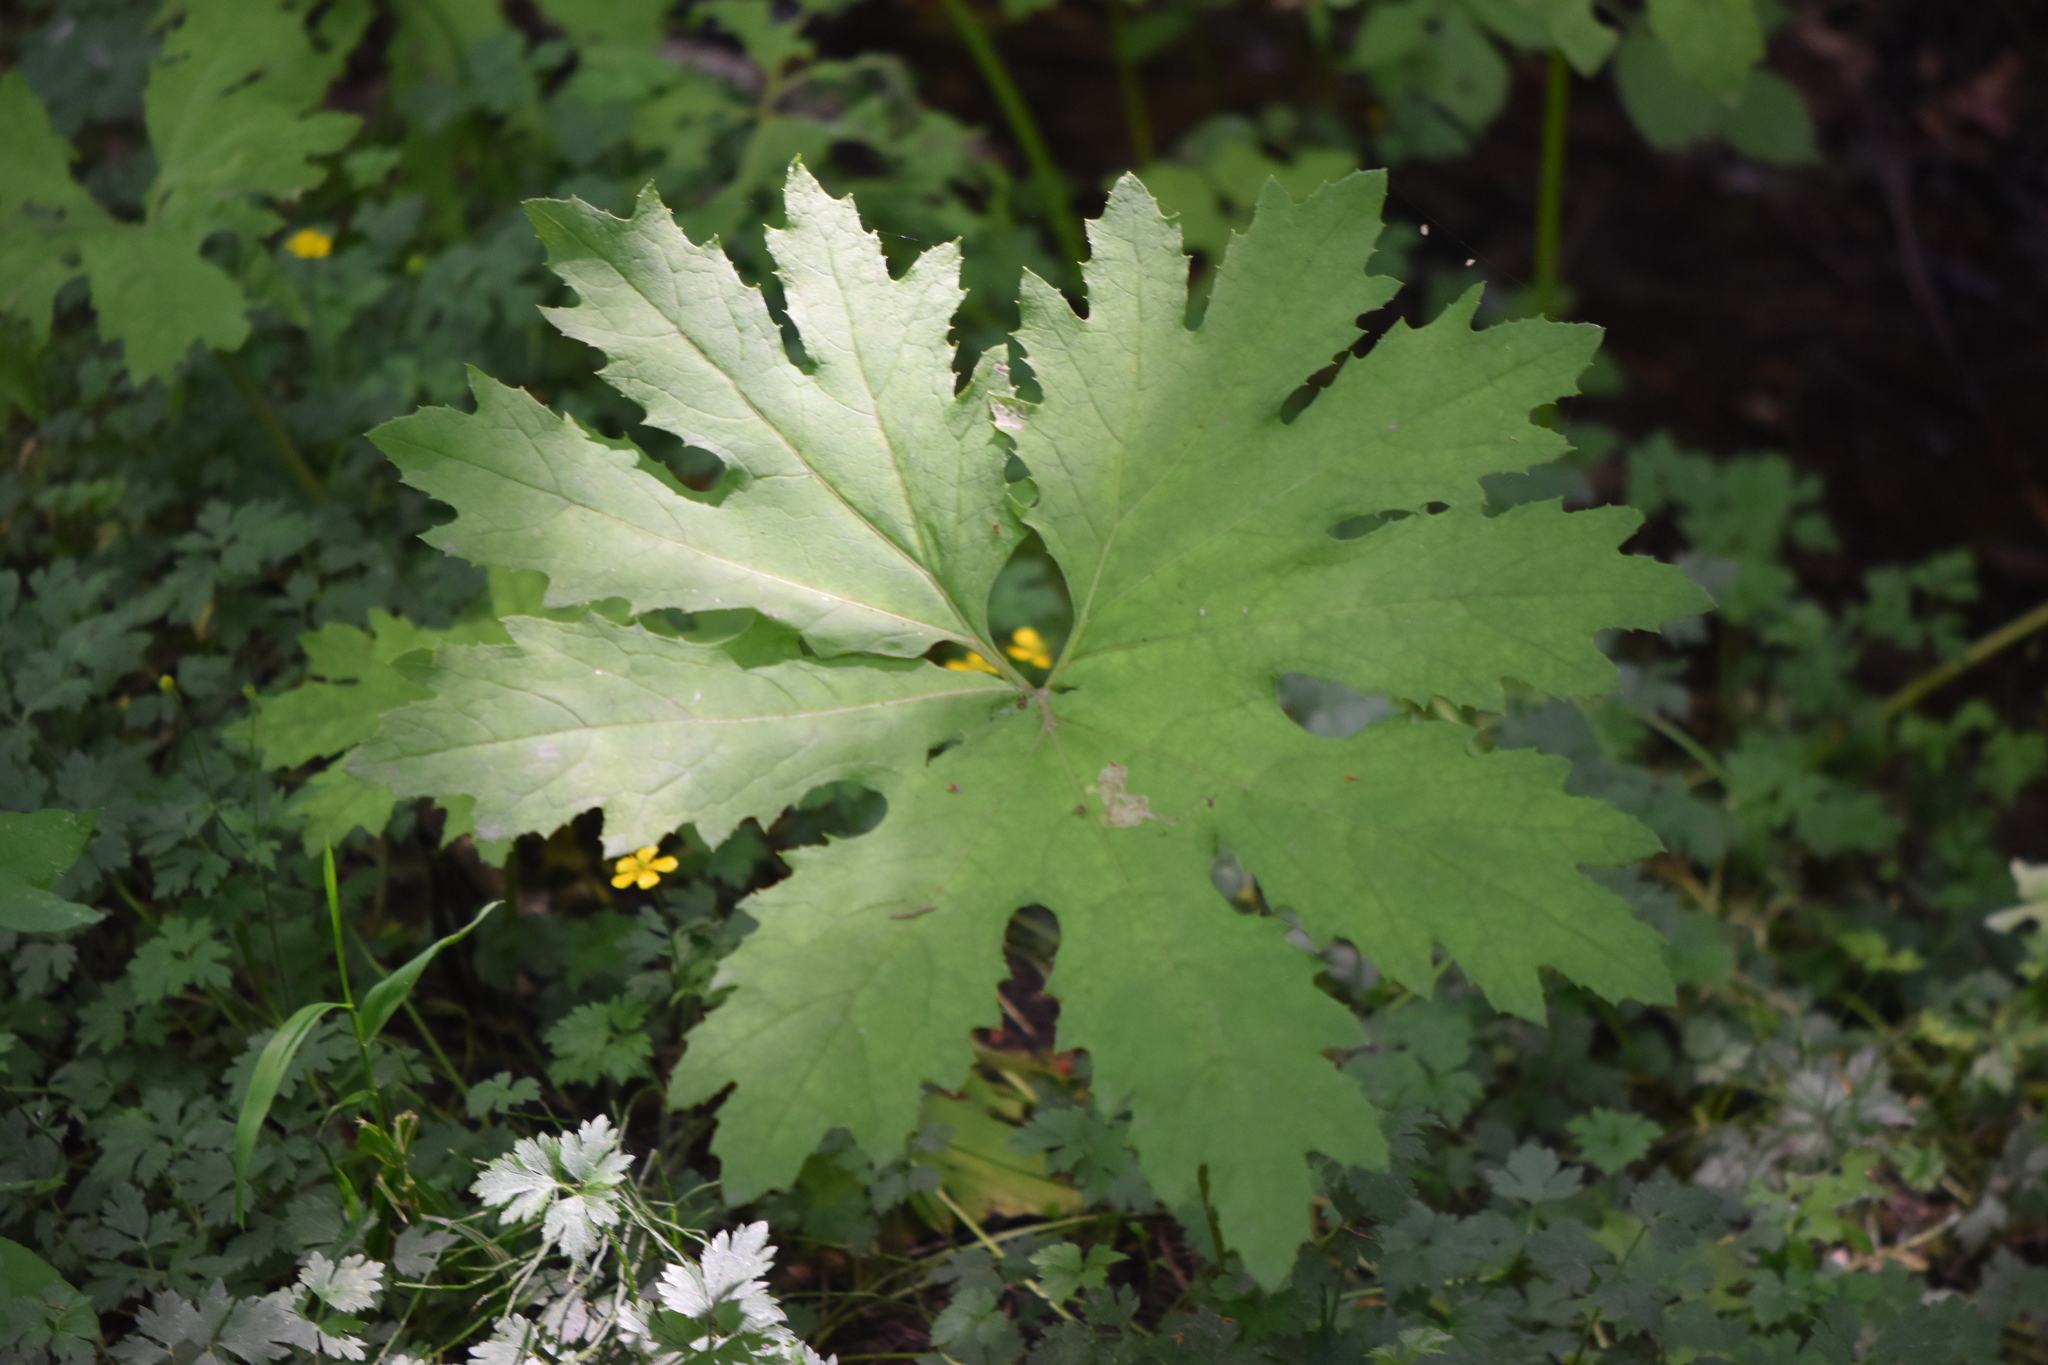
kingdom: Plantae
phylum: Tracheophyta
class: Magnoliopsida
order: Asterales
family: Asteraceae
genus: Petasites
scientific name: Petasites frigidus
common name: Arctic butterbur
